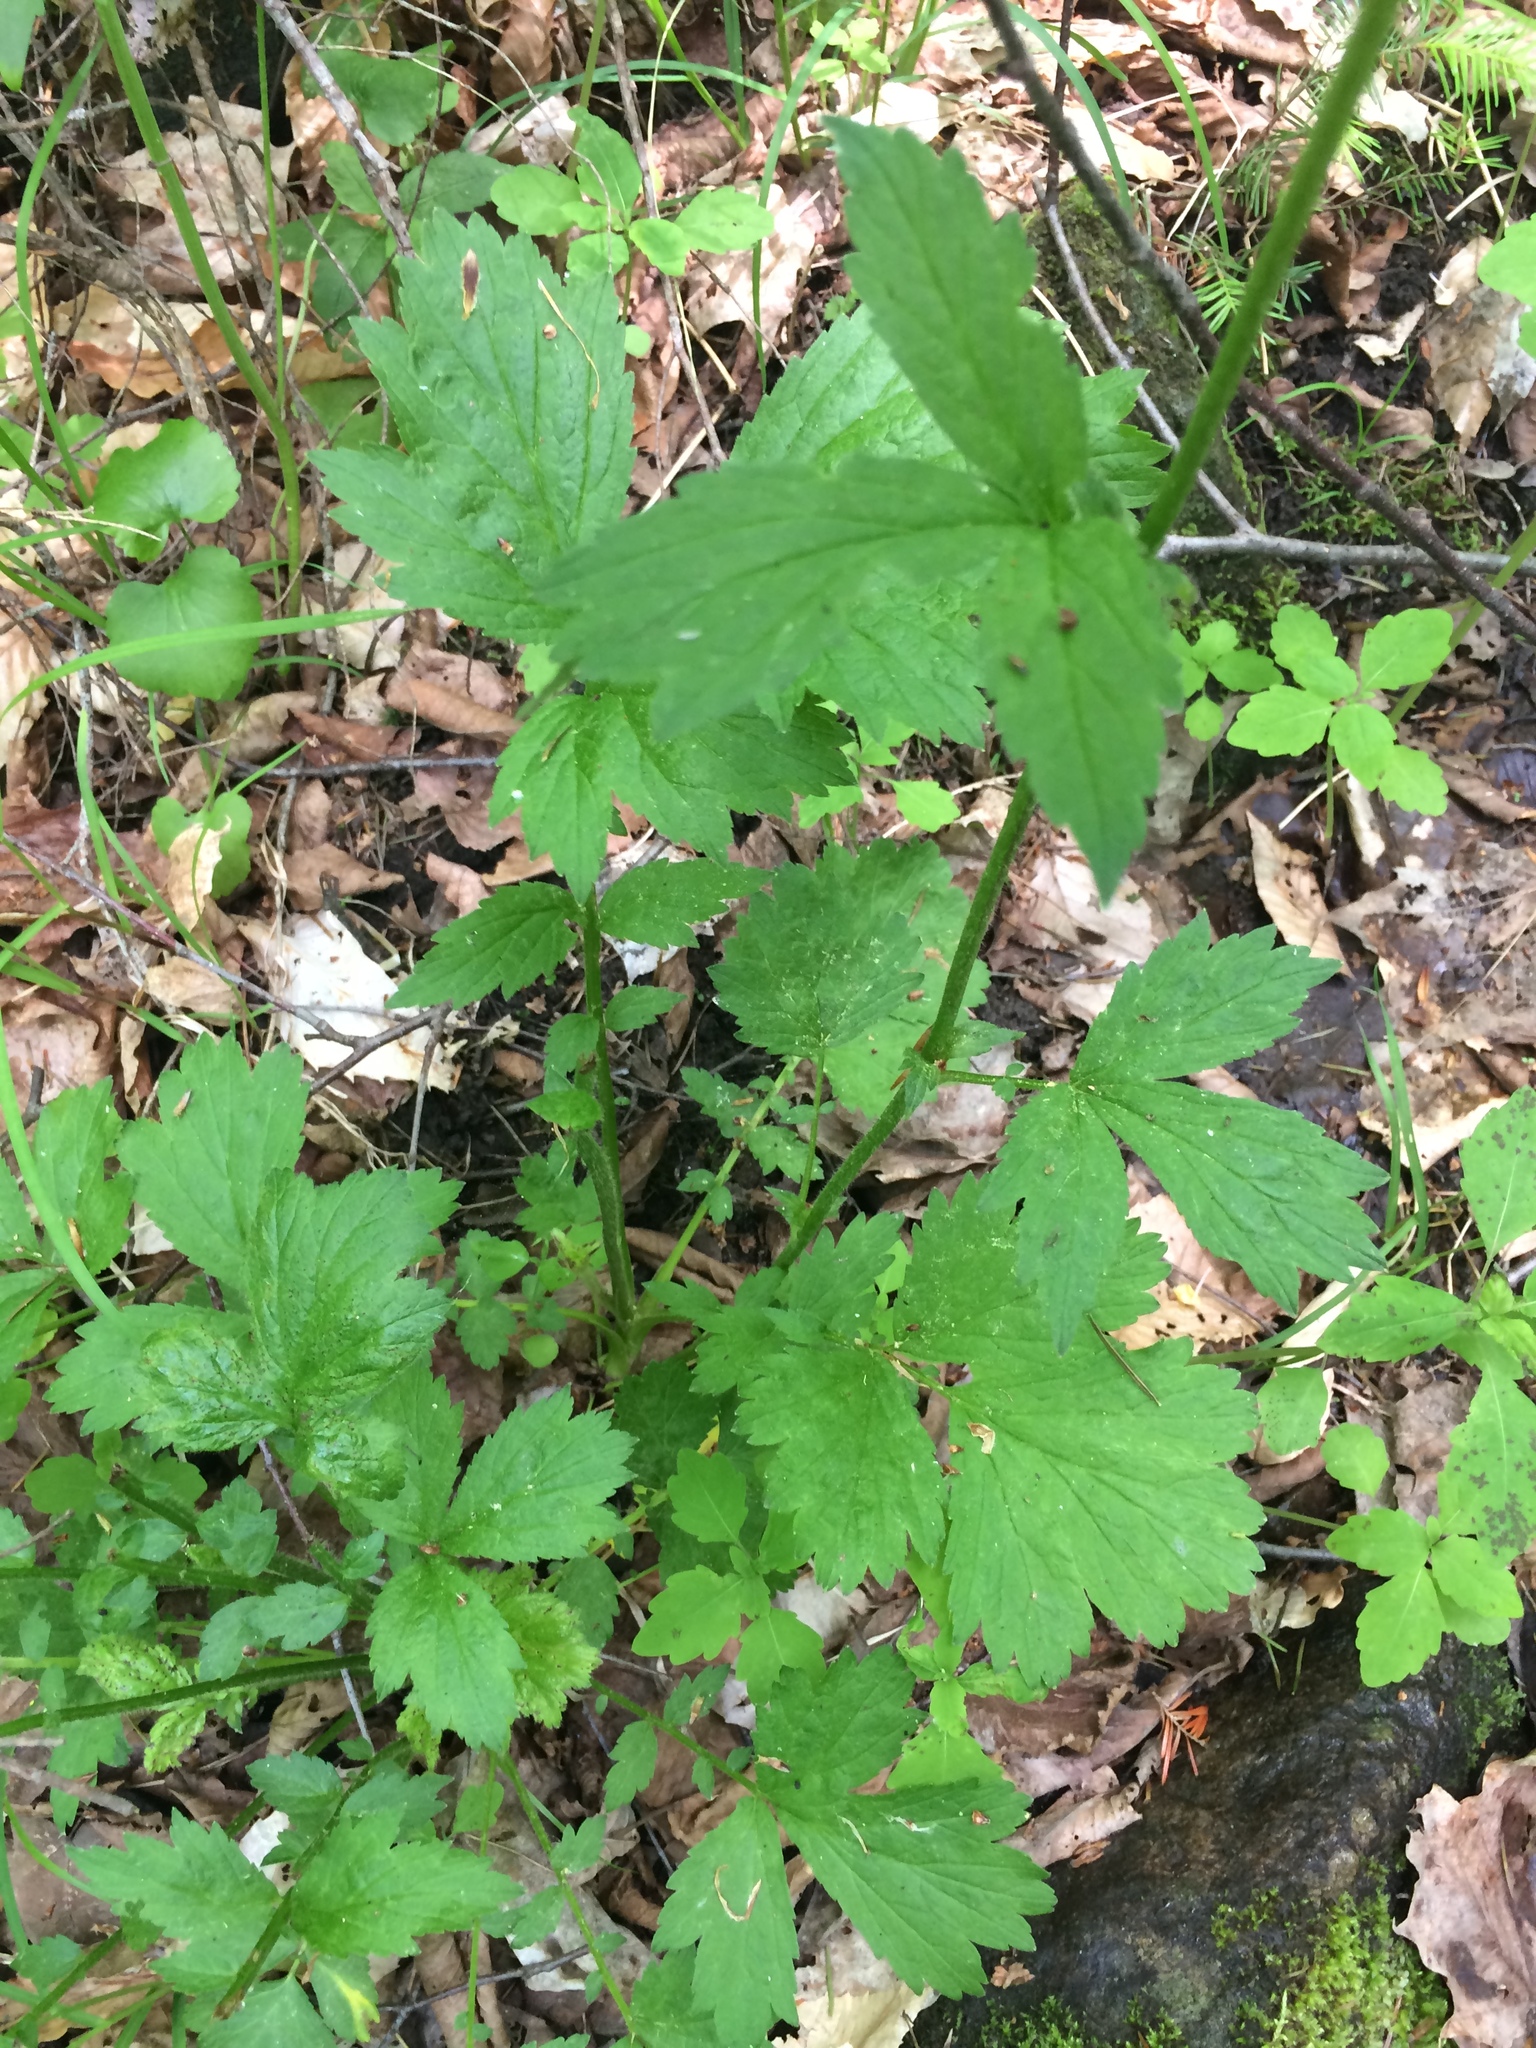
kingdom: Plantae
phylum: Tracheophyta
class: Magnoliopsida
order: Rosales
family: Rosaceae
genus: Geum
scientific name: Geum rivale
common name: Water avens
